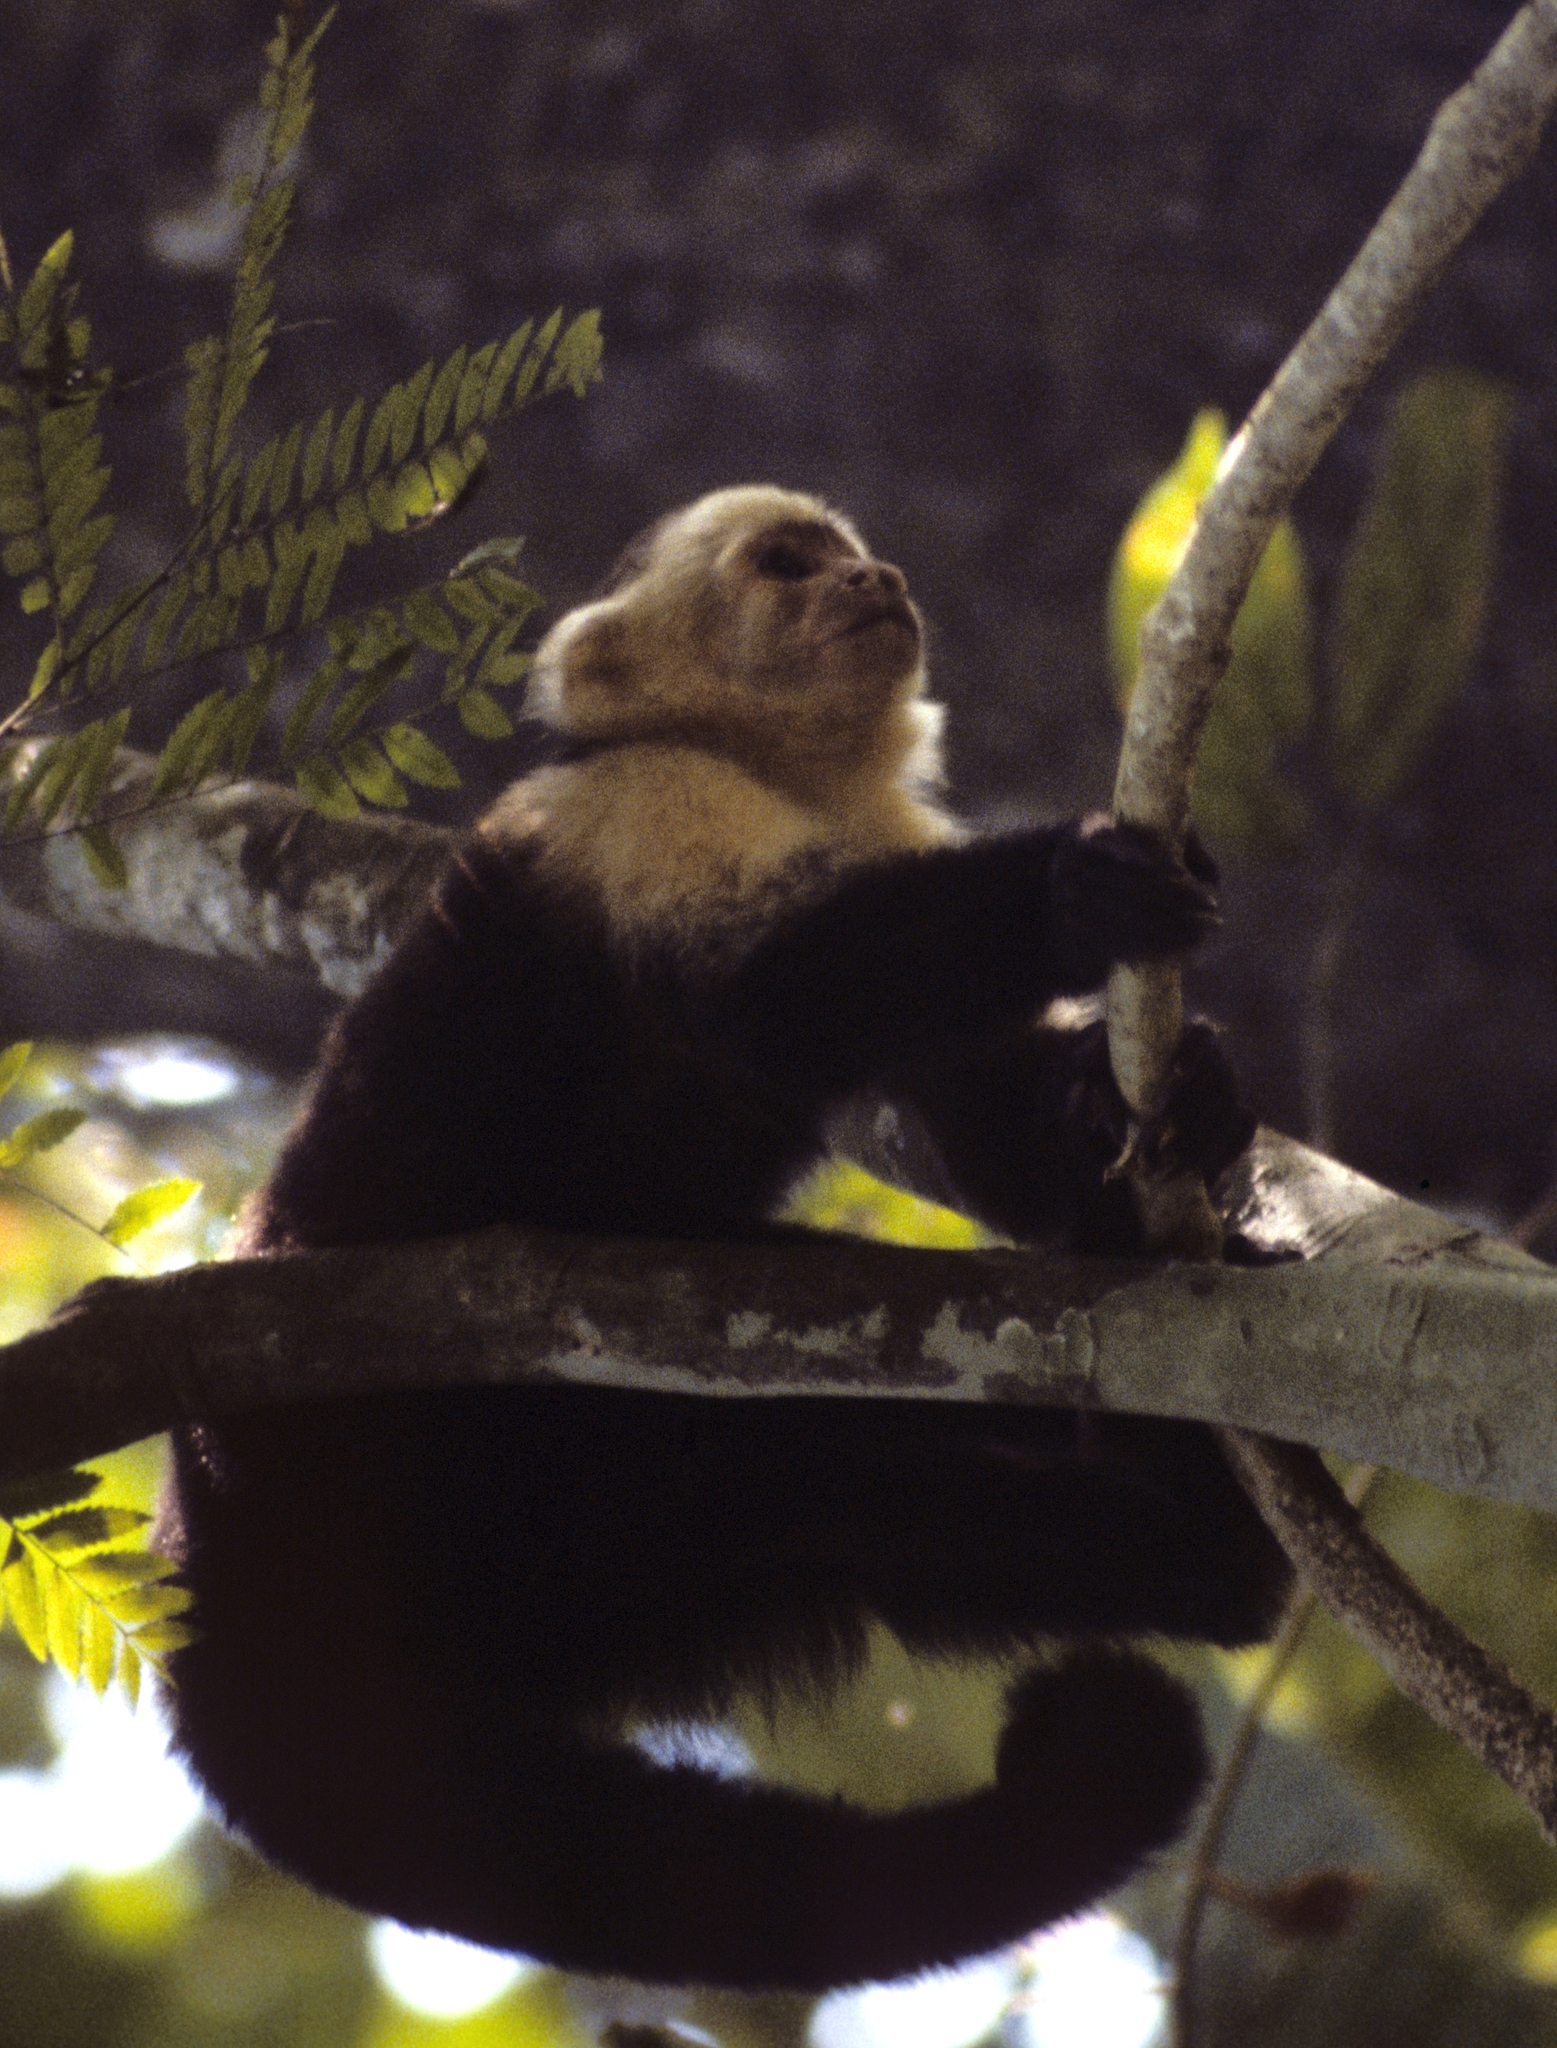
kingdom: Animalia
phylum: Chordata
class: Mammalia
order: Primates
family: Cebidae
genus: Cebus
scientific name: Cebus imitator
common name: Panamanian white-faced capuchin
